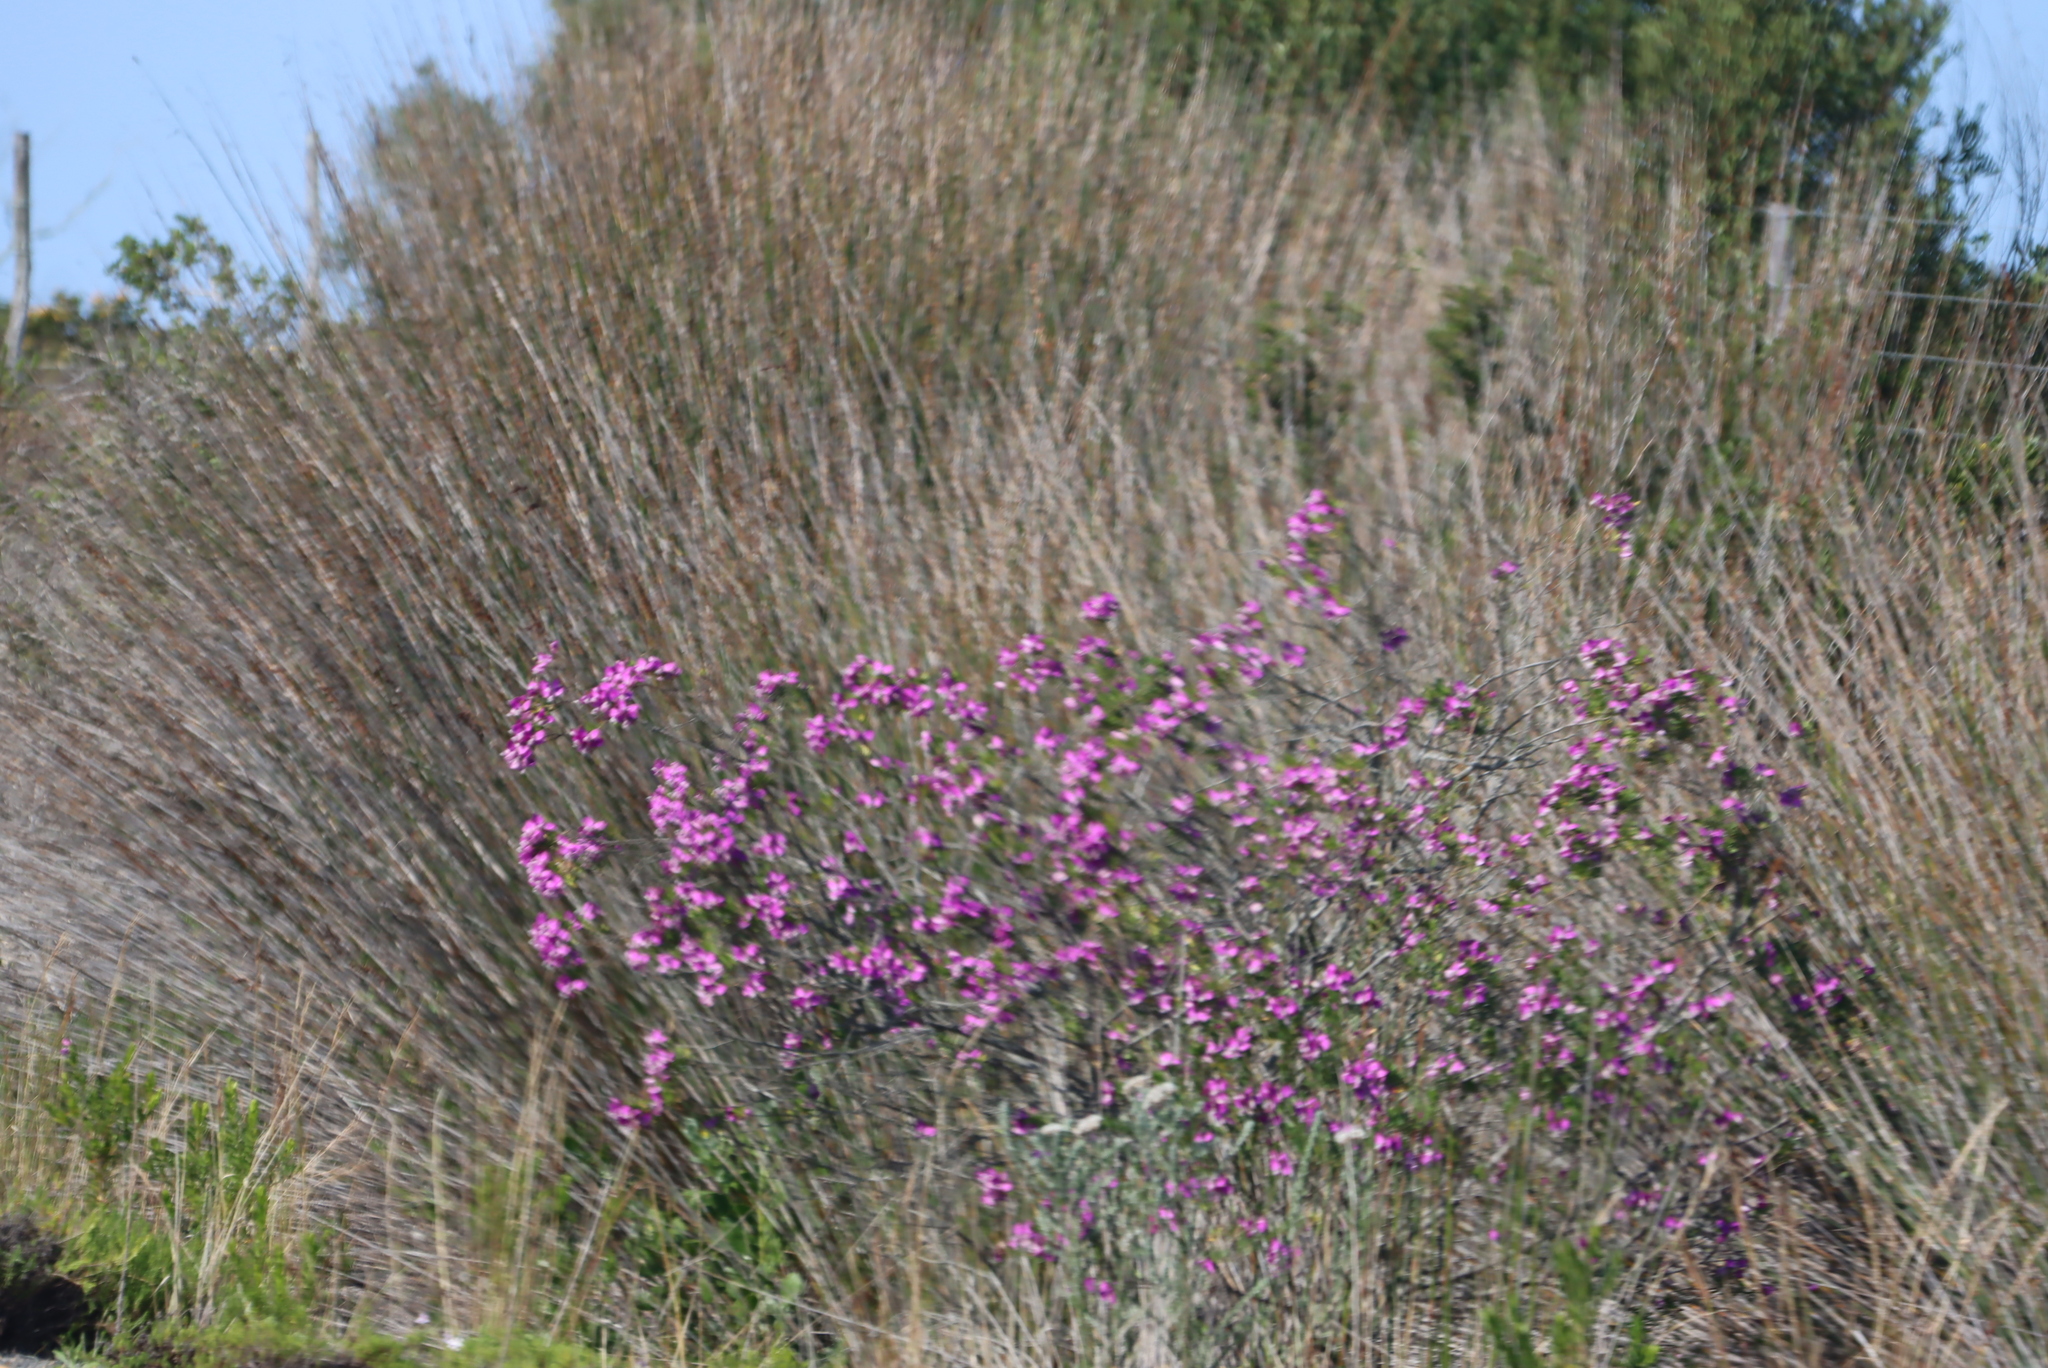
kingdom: Plantae
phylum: Tracheophyta
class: Magnoliopsida
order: Fabales
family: Polygalaceae
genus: Polygala
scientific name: Polygala myrtifolia
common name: Myrtle-leaf milkwort
